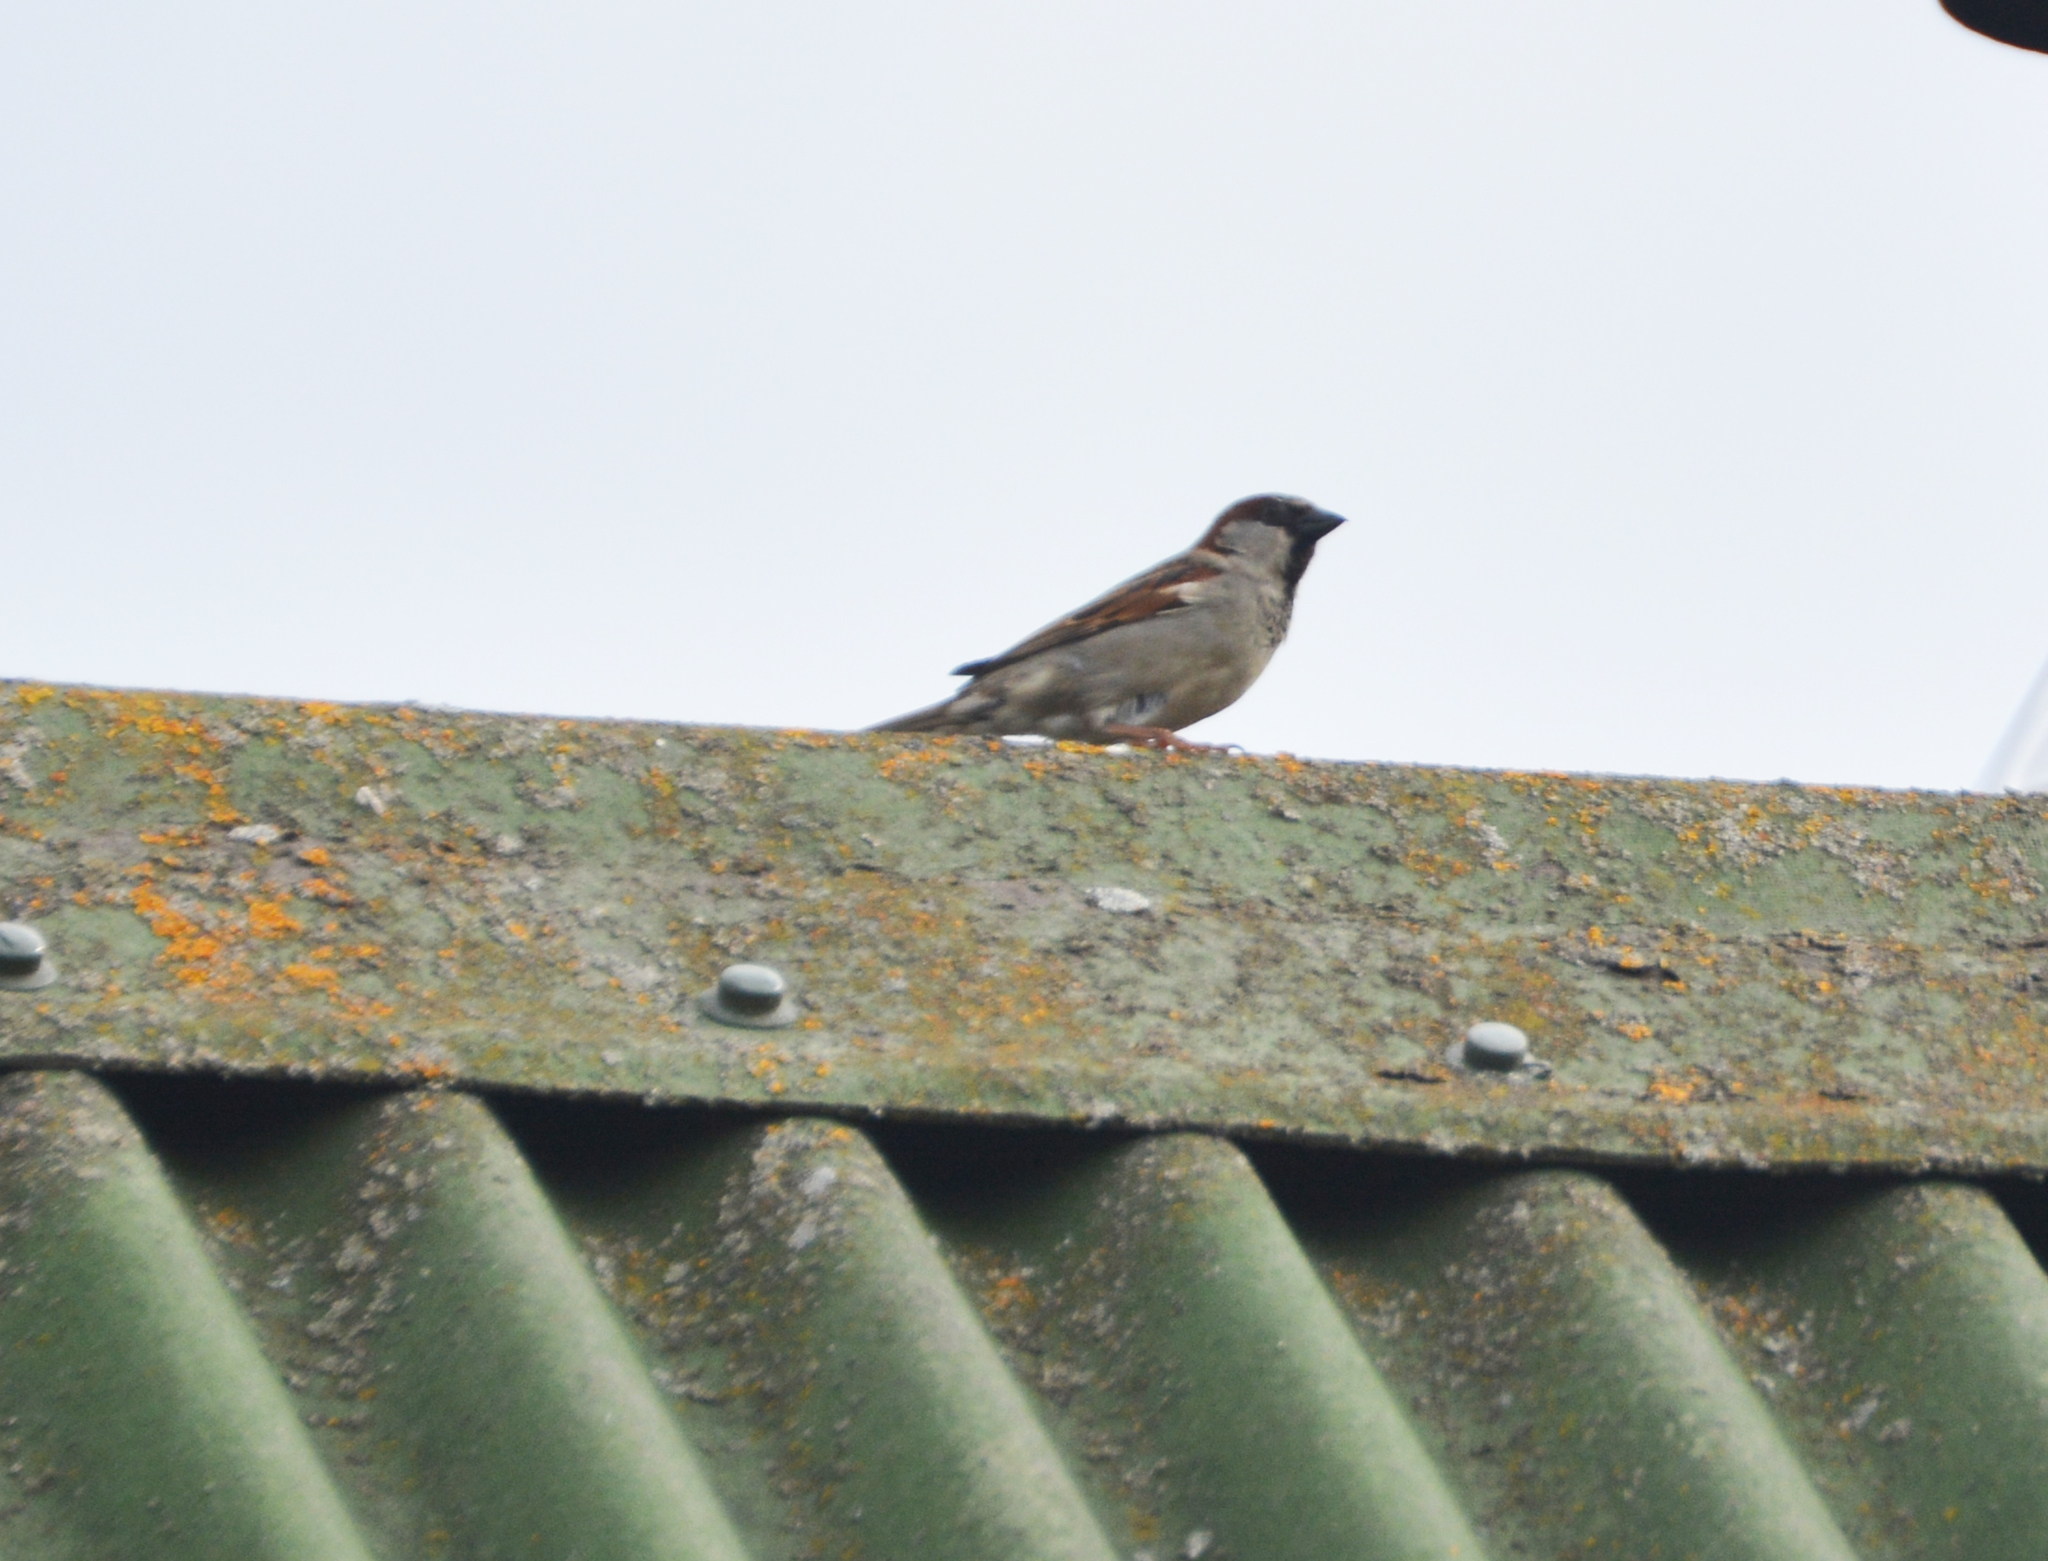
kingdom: Animalia
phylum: Chordata
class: Aves
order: Passeriformes
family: Passeridae
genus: Passer
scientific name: Passer domesticus
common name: House sparrow
